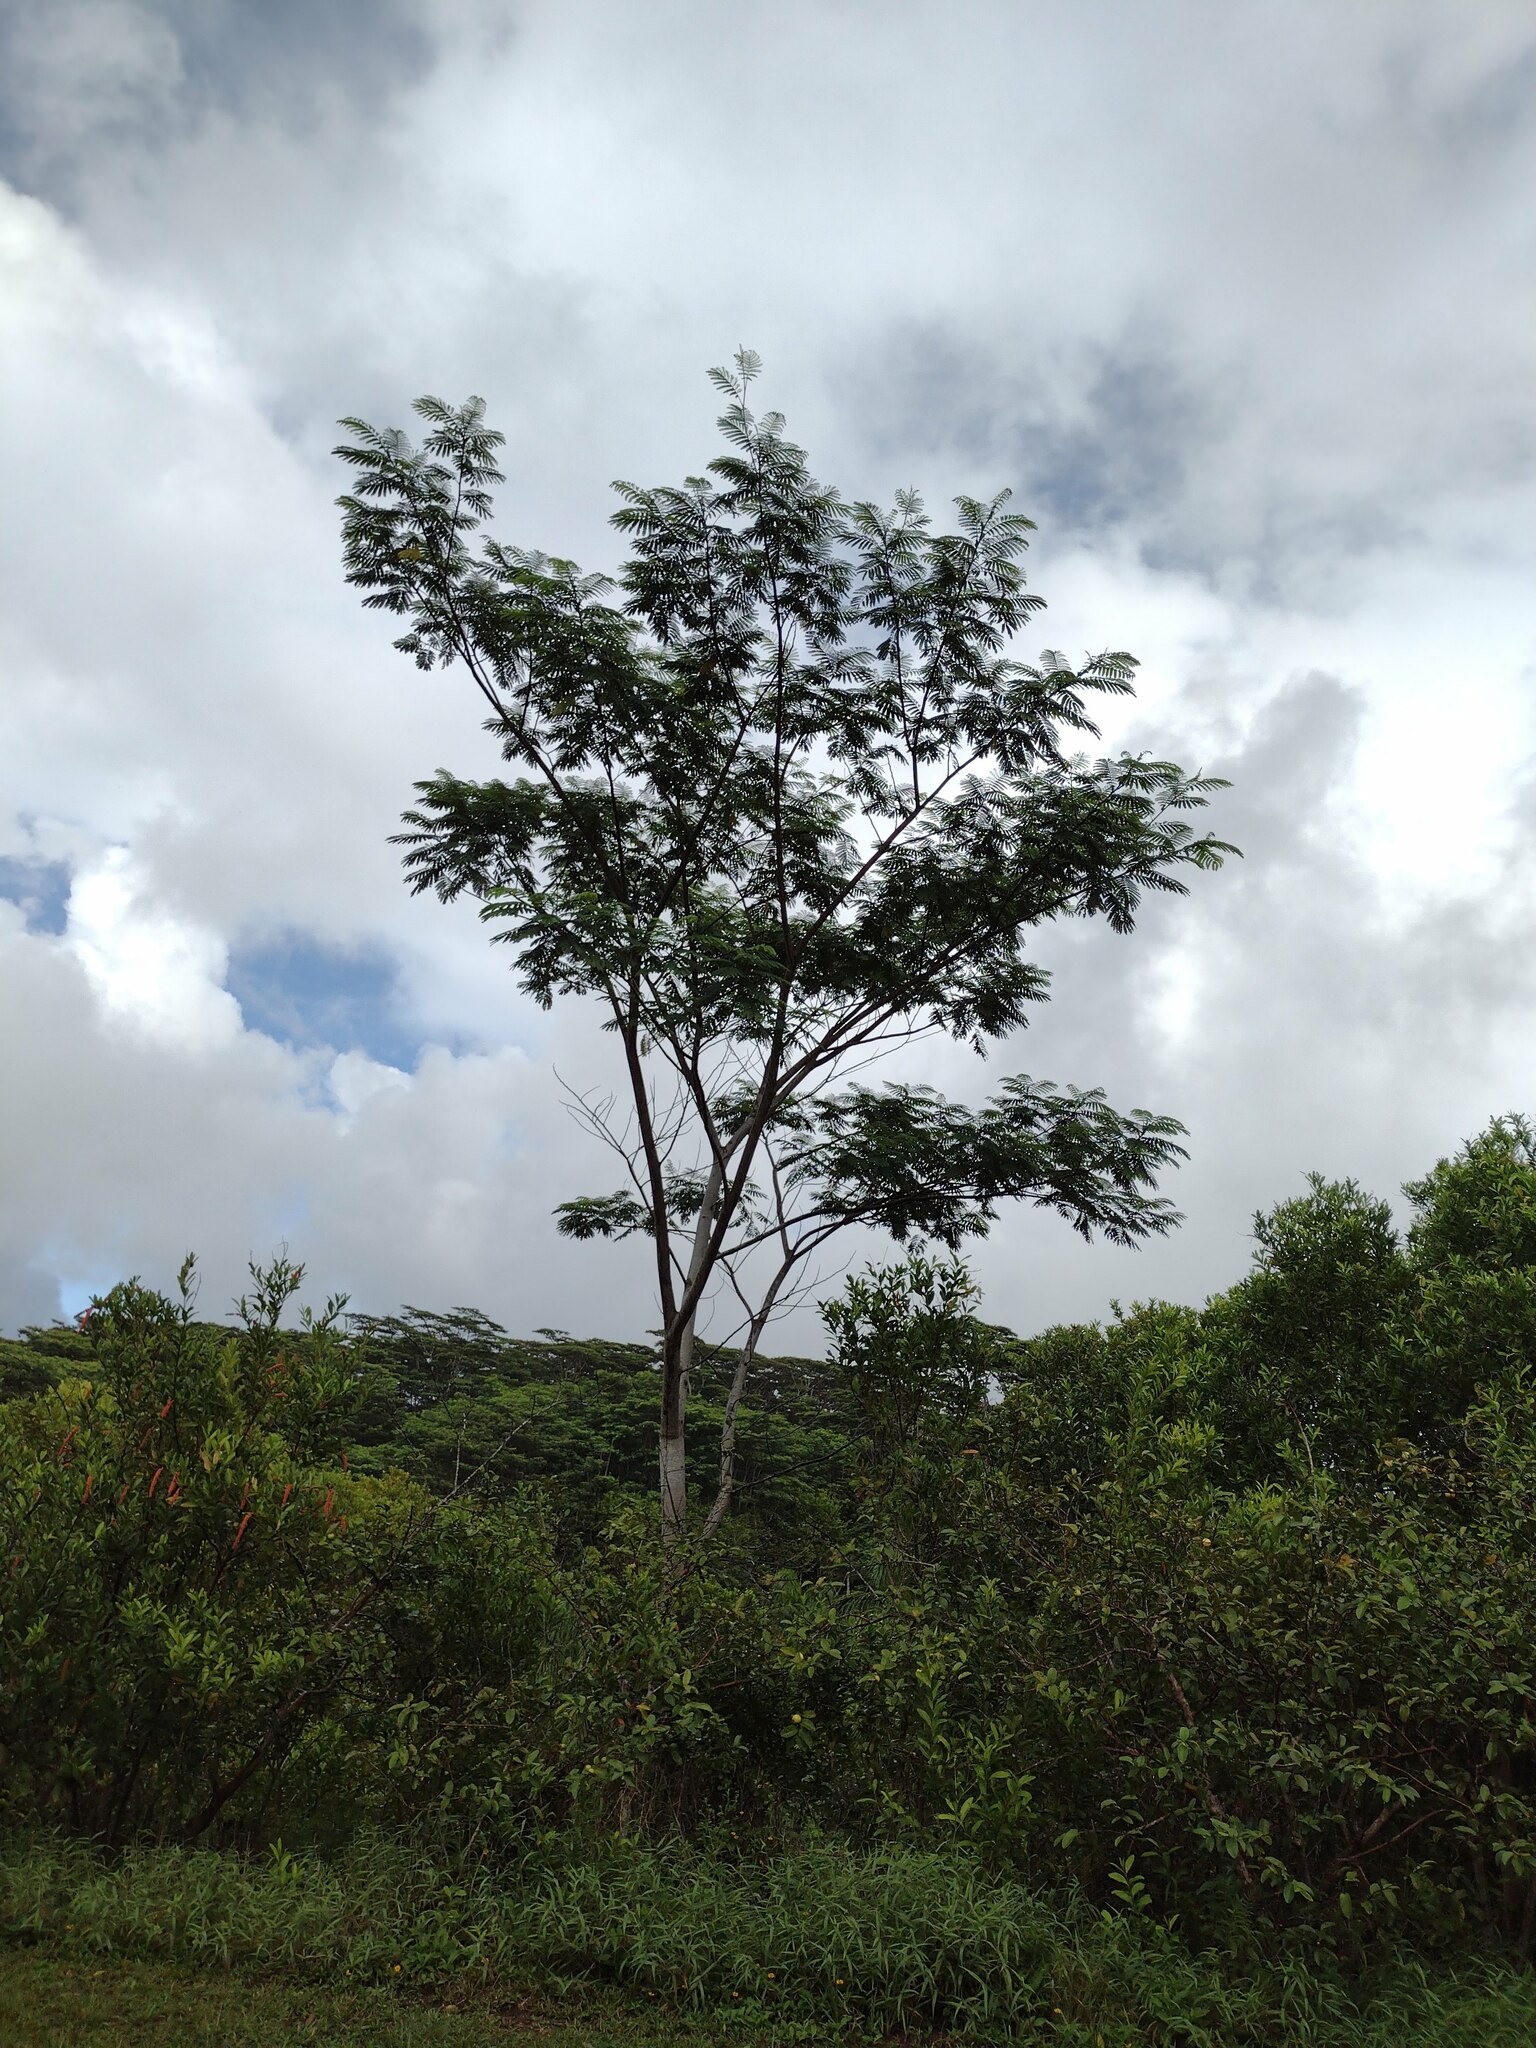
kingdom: Plantae
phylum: Tracheophyta
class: Magnoliopsida
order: Fabales
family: Fabaceae
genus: Falcataria
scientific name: Falcataria falcata
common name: Moluccan albizia
